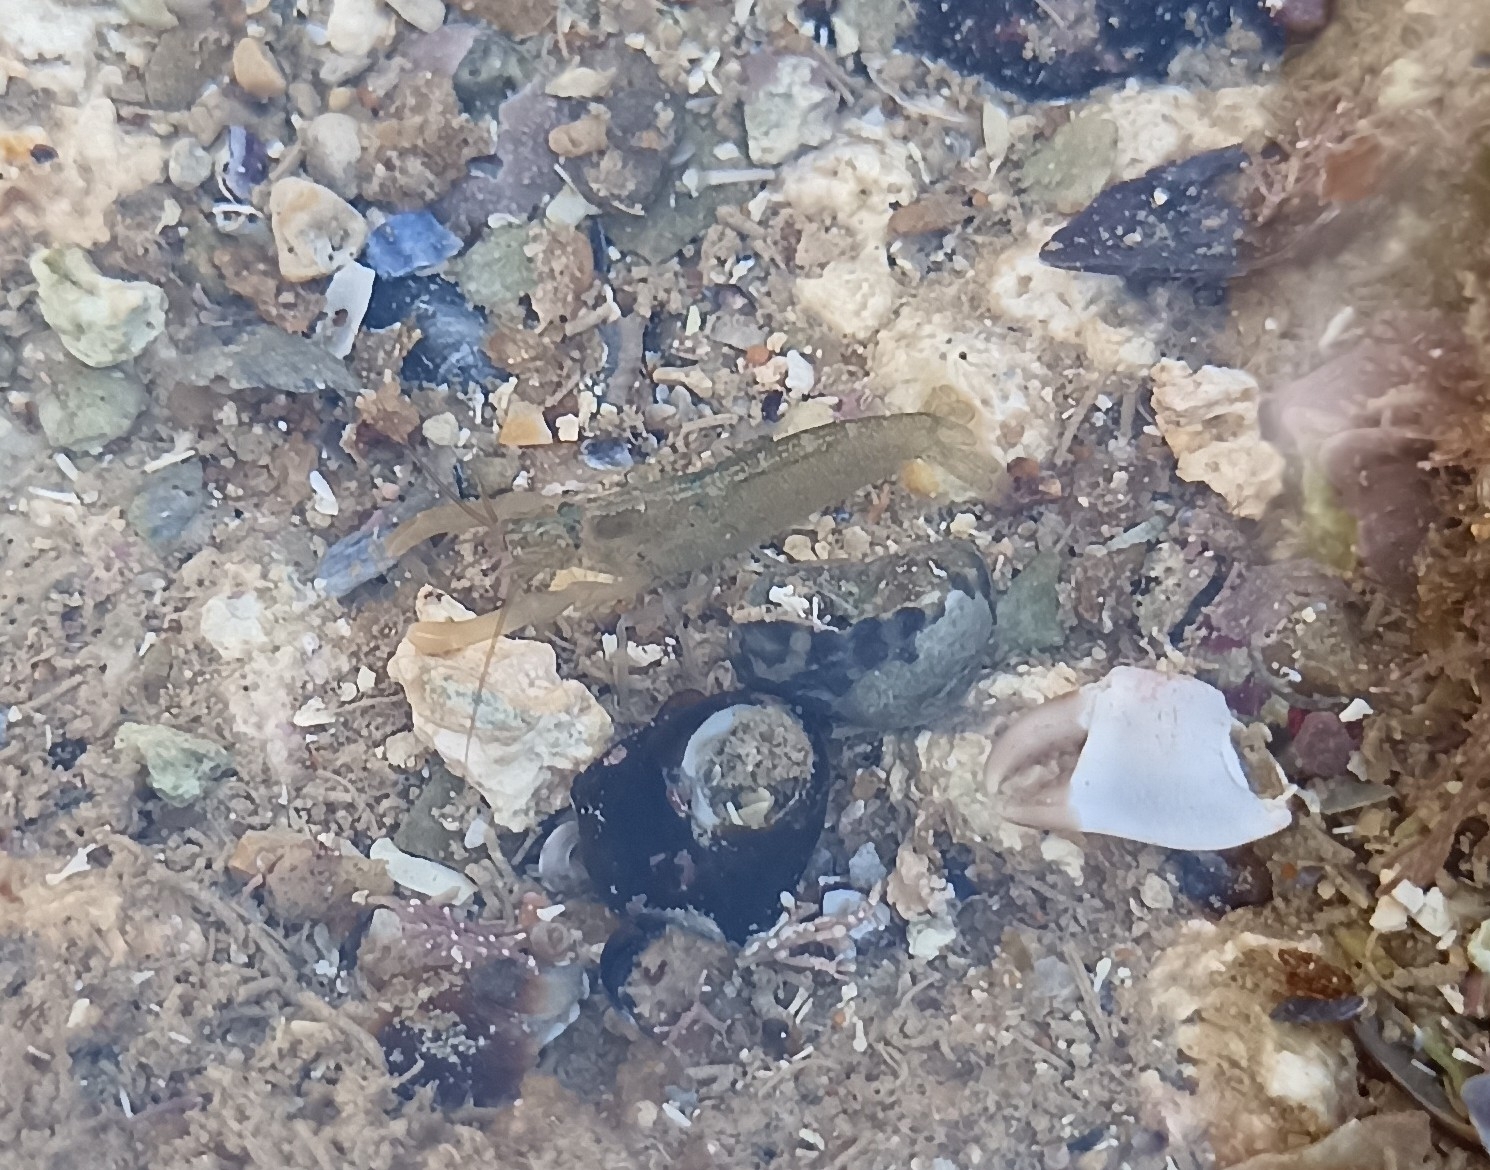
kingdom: Animalia
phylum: Arthropoda
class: Malacostraca
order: Decapoda
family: Alpheidae
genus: Athanas
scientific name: Athanas nitescens
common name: Hooded shrimp
